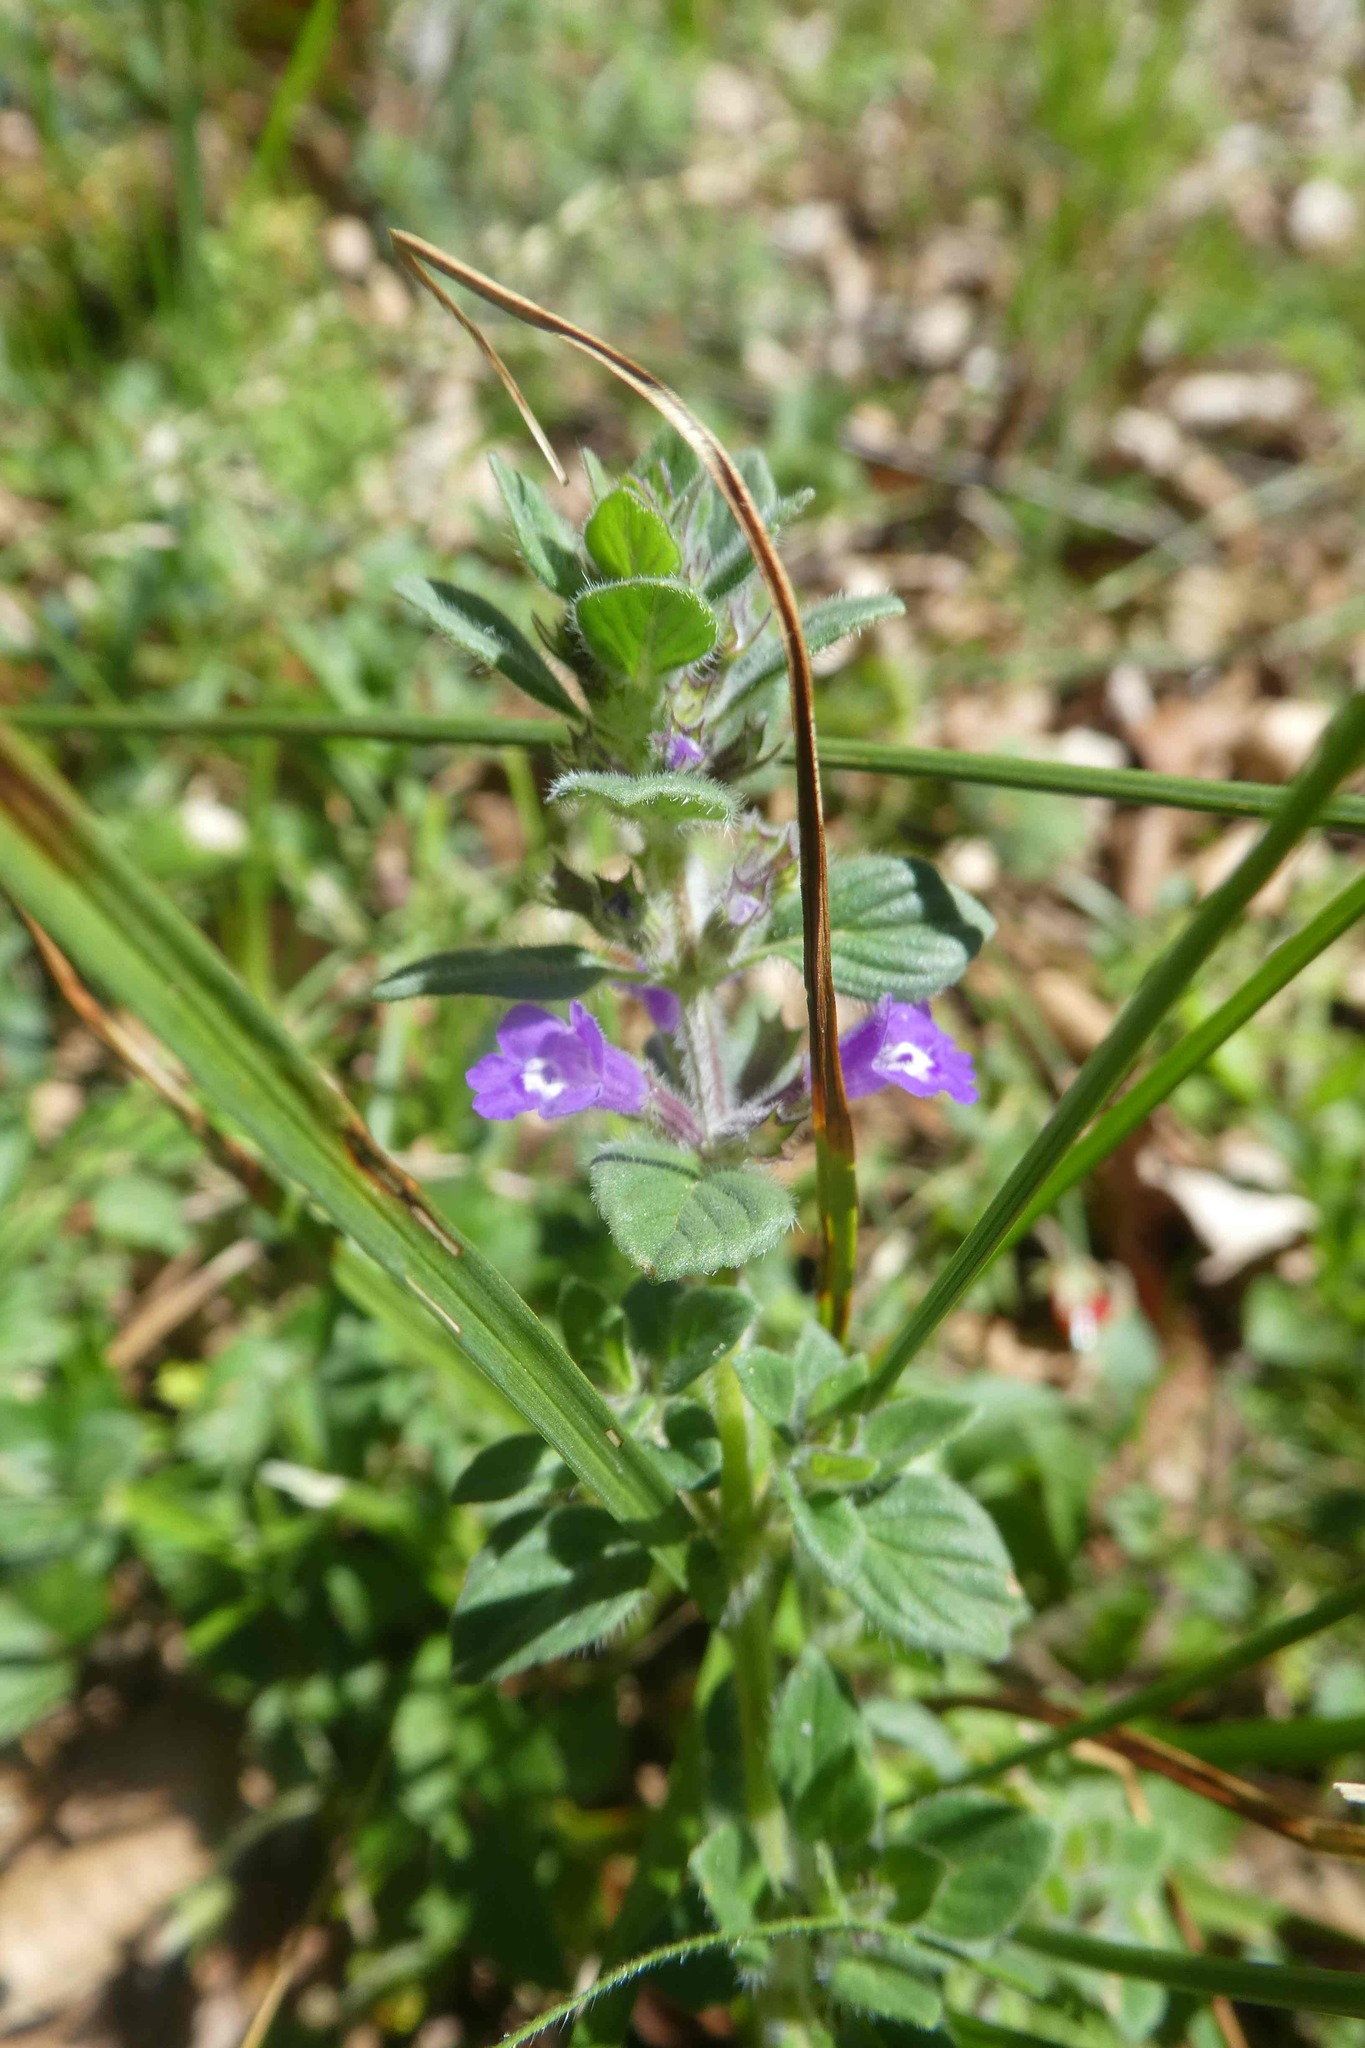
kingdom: Plantae
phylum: Tracheophyta
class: Magnoliopsida
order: Lamiales
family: Lamiaceae
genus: Clinopodium
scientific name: Clinopodium acinos
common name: Basil thyme
